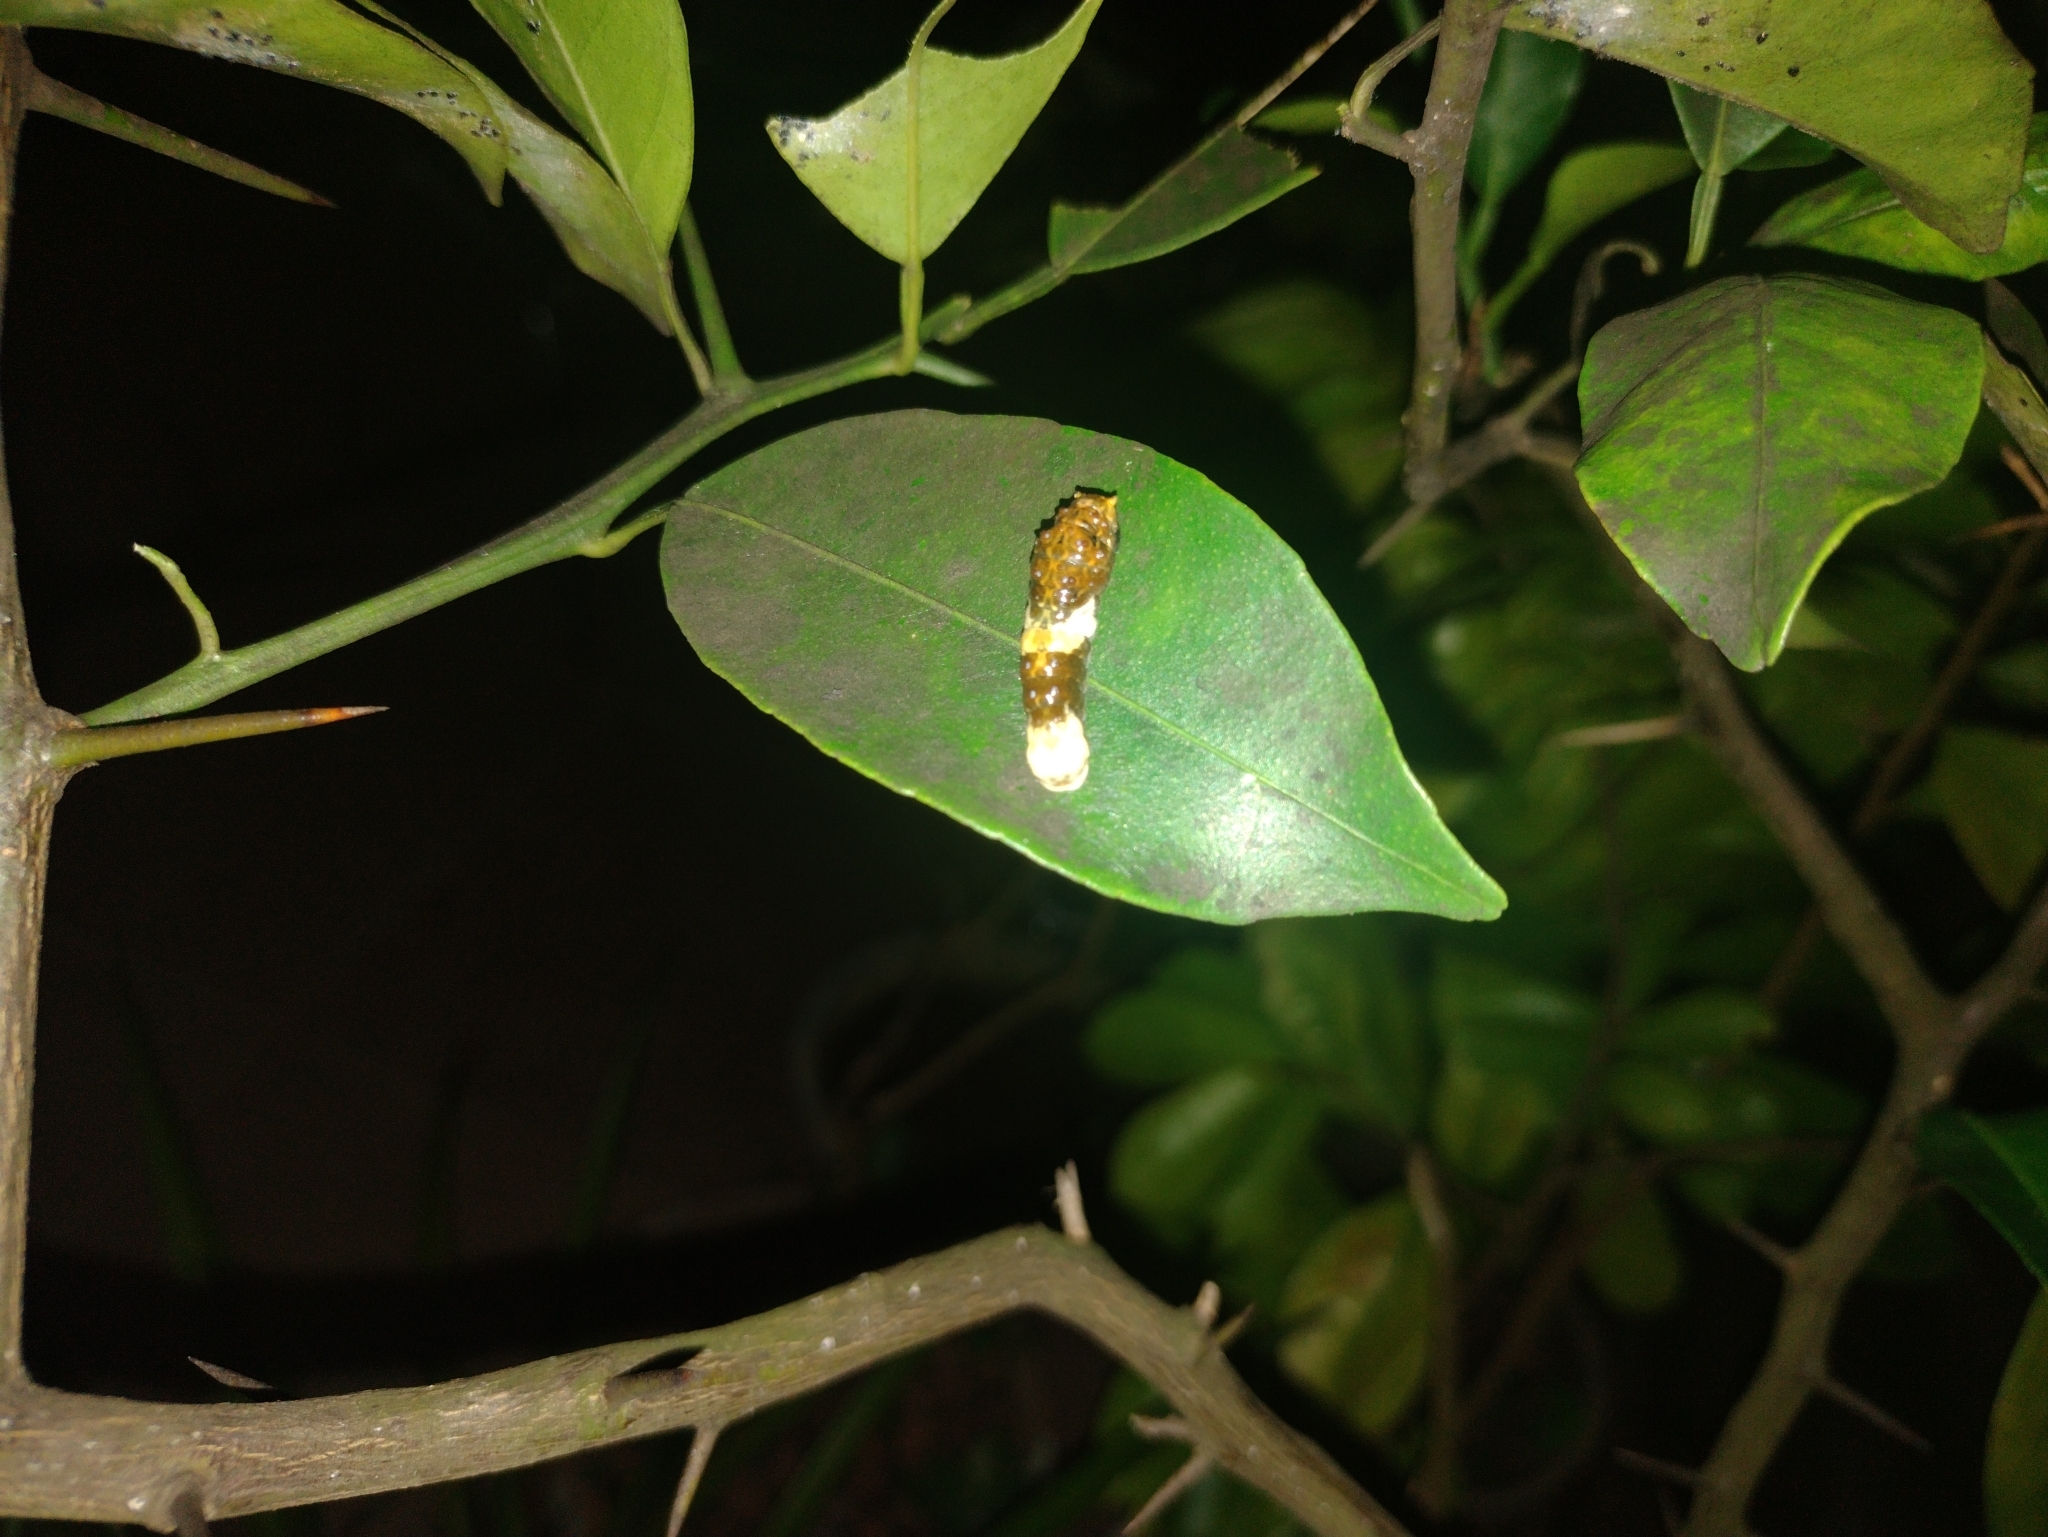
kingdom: Animalia
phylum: Arthropoda
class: Insecta
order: Lepidoptera
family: Papilionidae
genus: Papilio
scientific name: Papilio thoas
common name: King swallowtail
